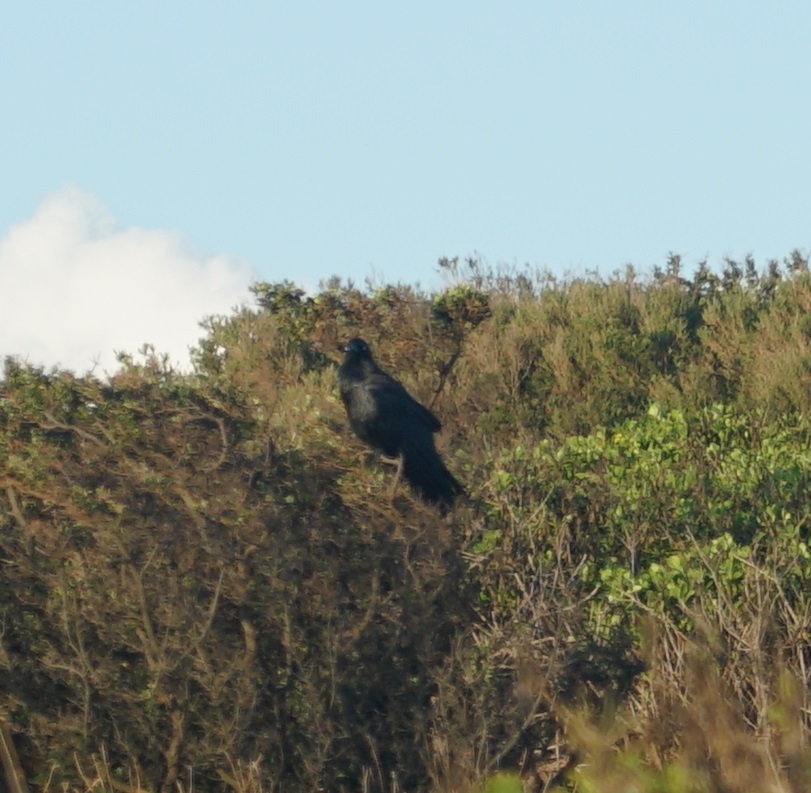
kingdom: Animalia
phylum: Chordata
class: Aves
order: Passeriformes
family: Corvidae
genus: Corvus
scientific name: Corvus coronoides
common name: Australian raven
